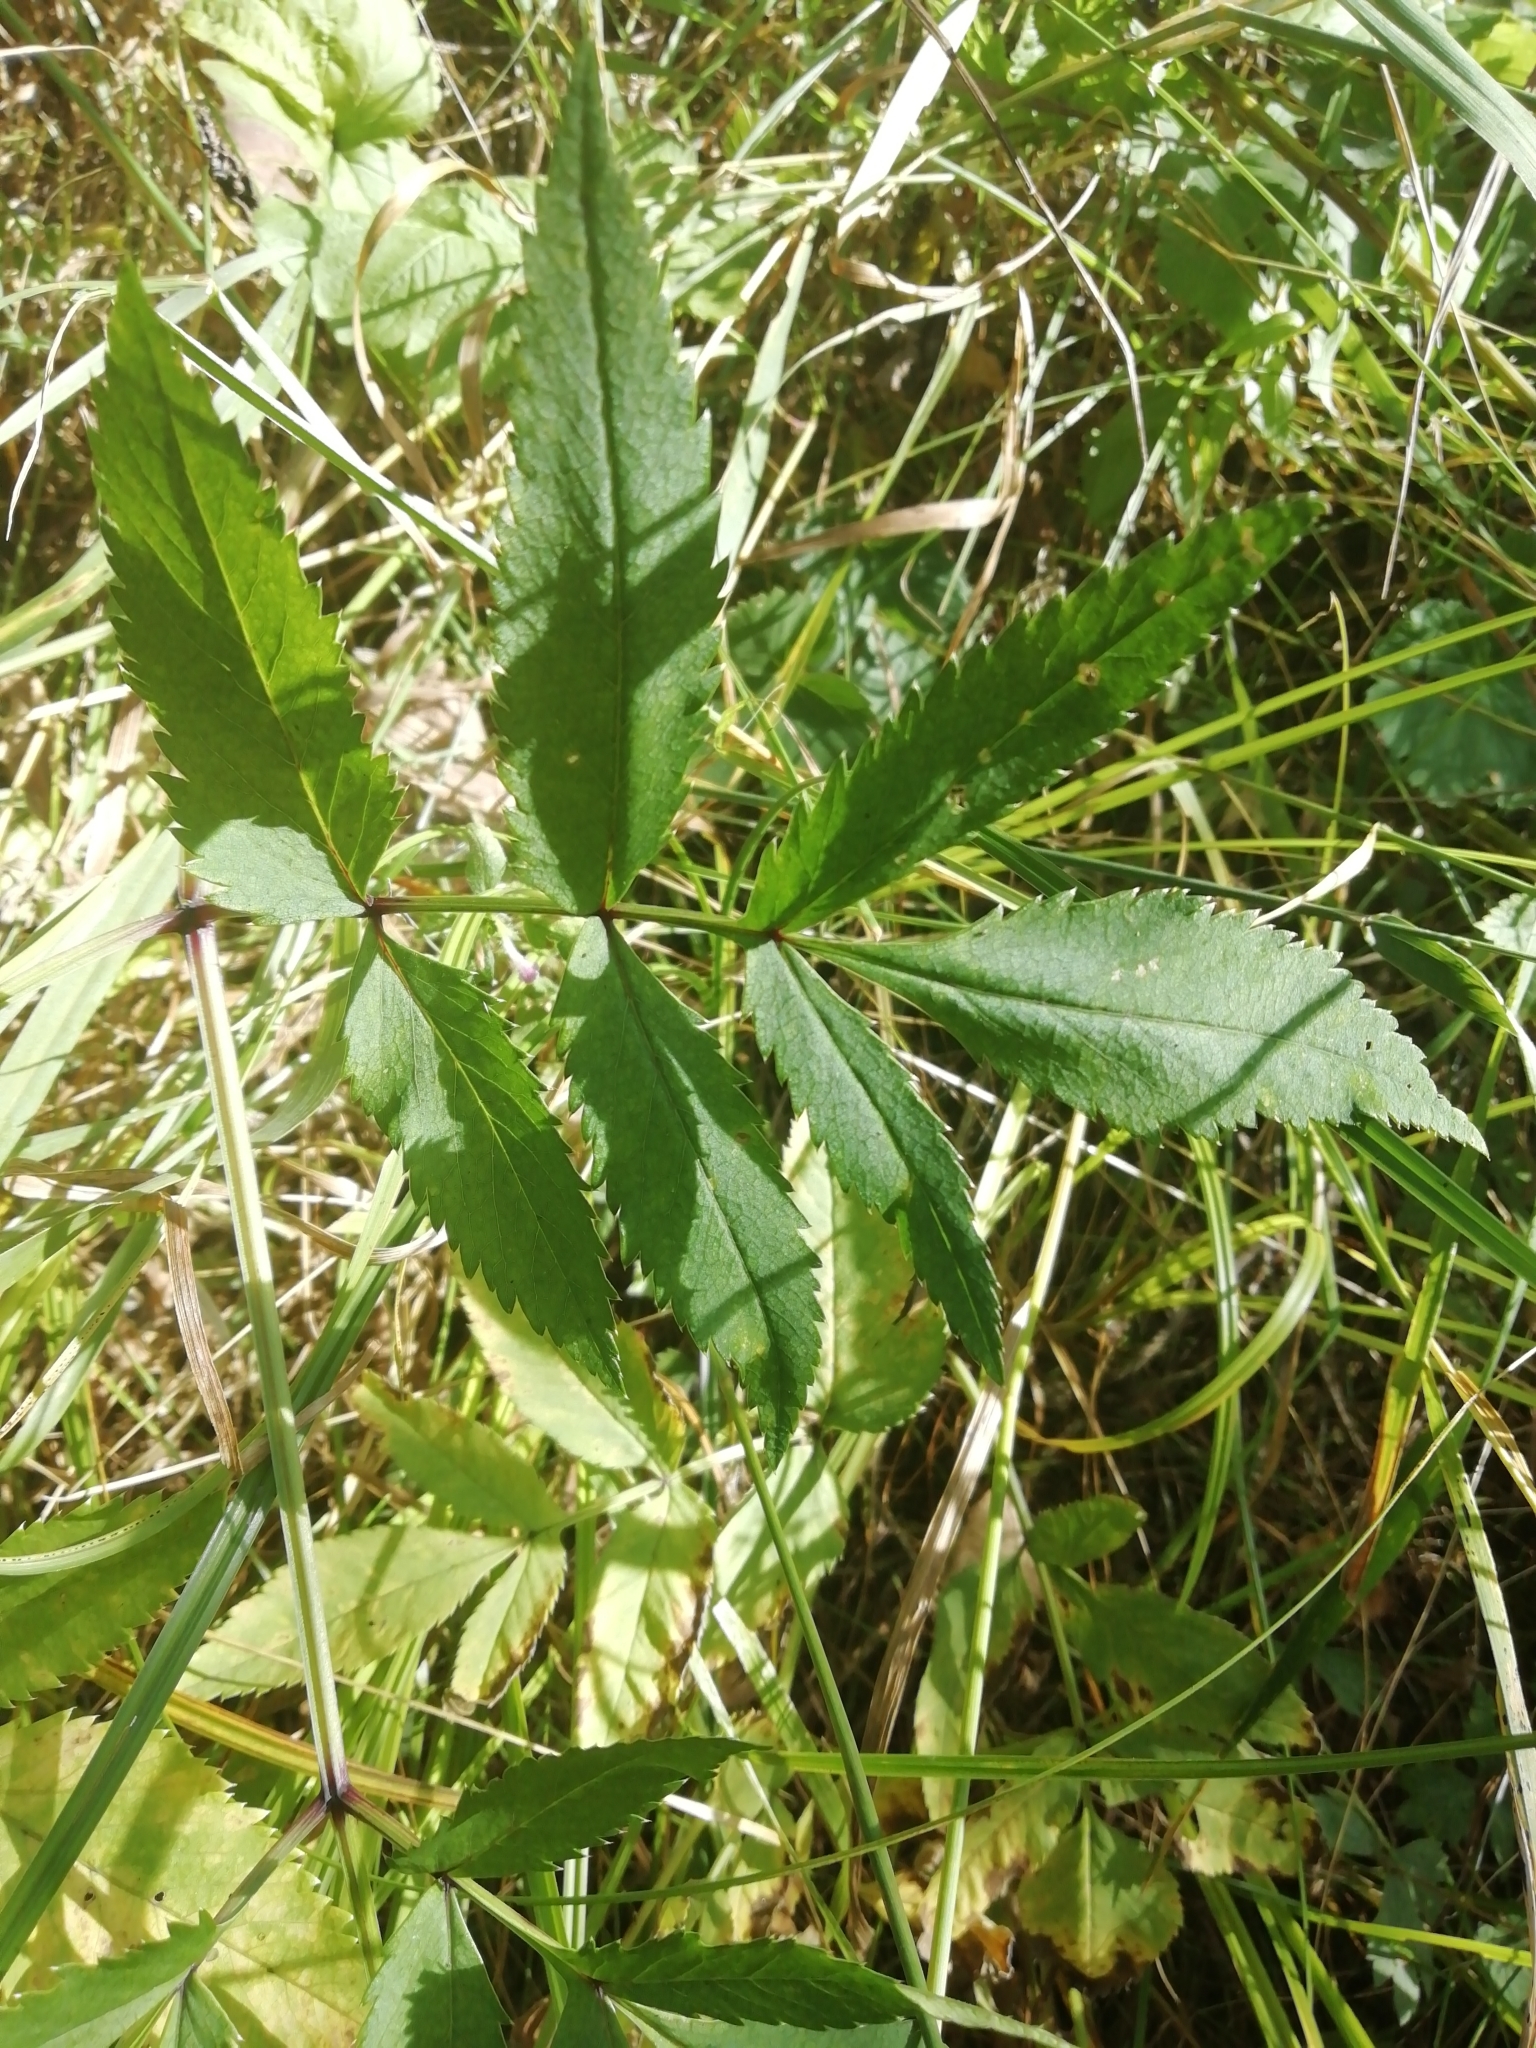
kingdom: Plantae
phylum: Tracheophyta
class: Magnoliopsida
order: Apiales
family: Apiaceae
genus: Angelica
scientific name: Angelica sylvestris
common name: Wild angelica
